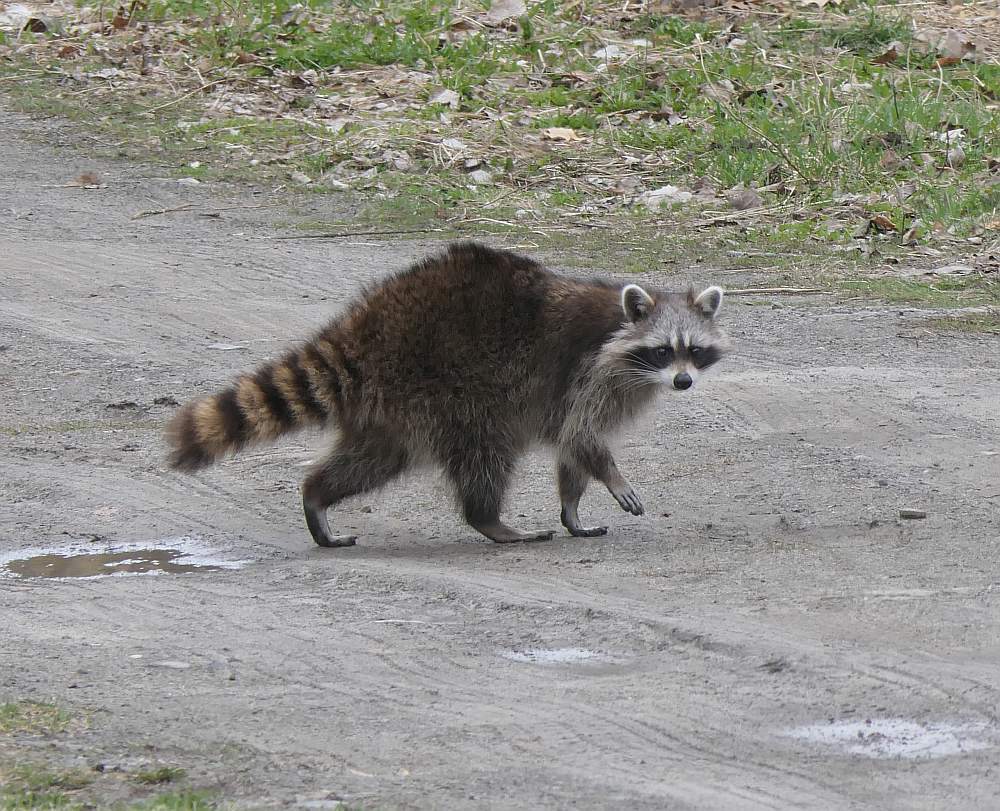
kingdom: Animalia
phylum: Chordata
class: Mammalia
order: Carnivora
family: Procyonidae
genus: Procyon
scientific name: Procyon lotor
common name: Raccoon
